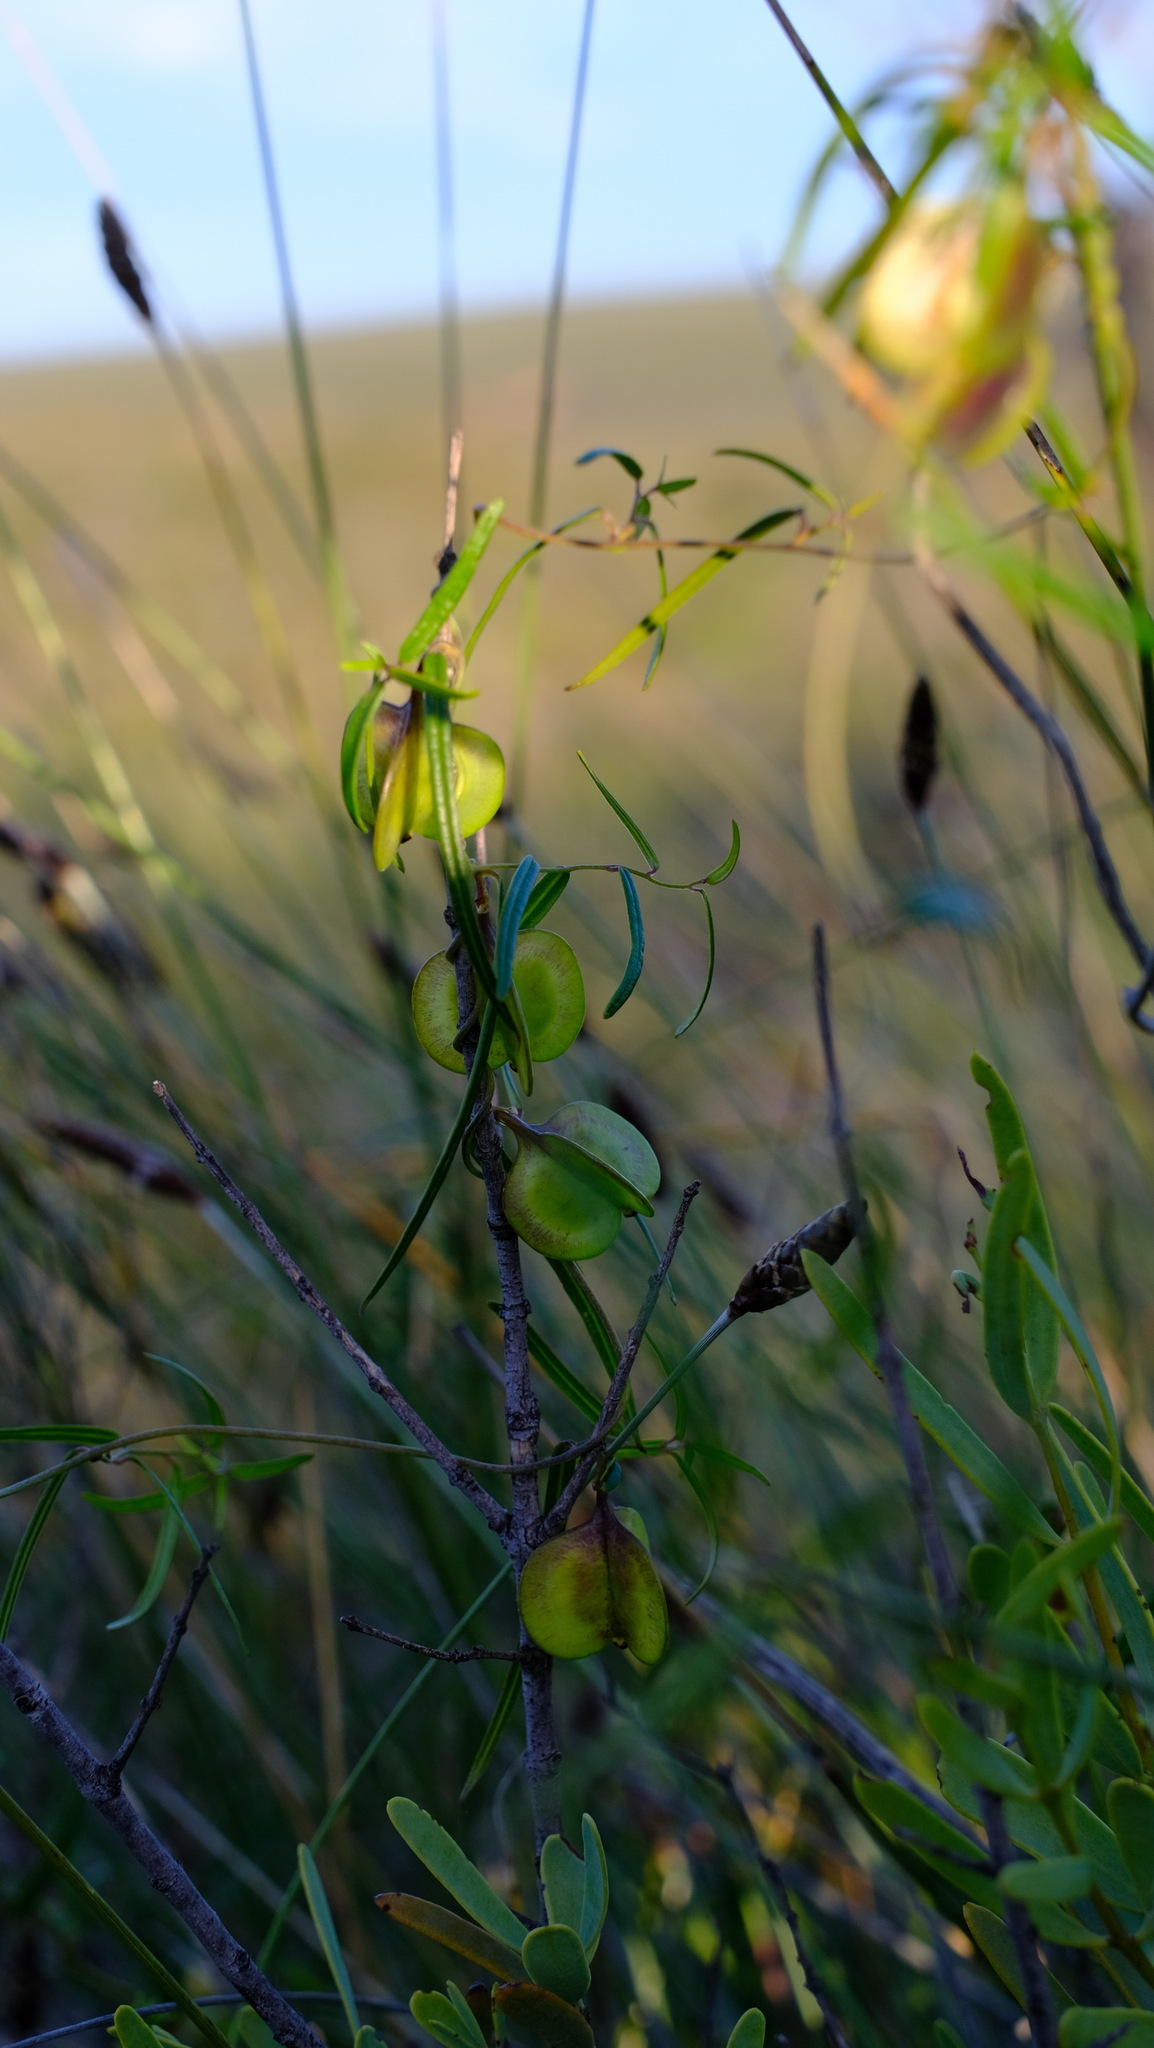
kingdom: Plantae
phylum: Tracheophyta
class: Liliopsida
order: Dioscoreales
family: Dioscoreaceae
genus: Dioscorea
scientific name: Dioscorea hastifolia
